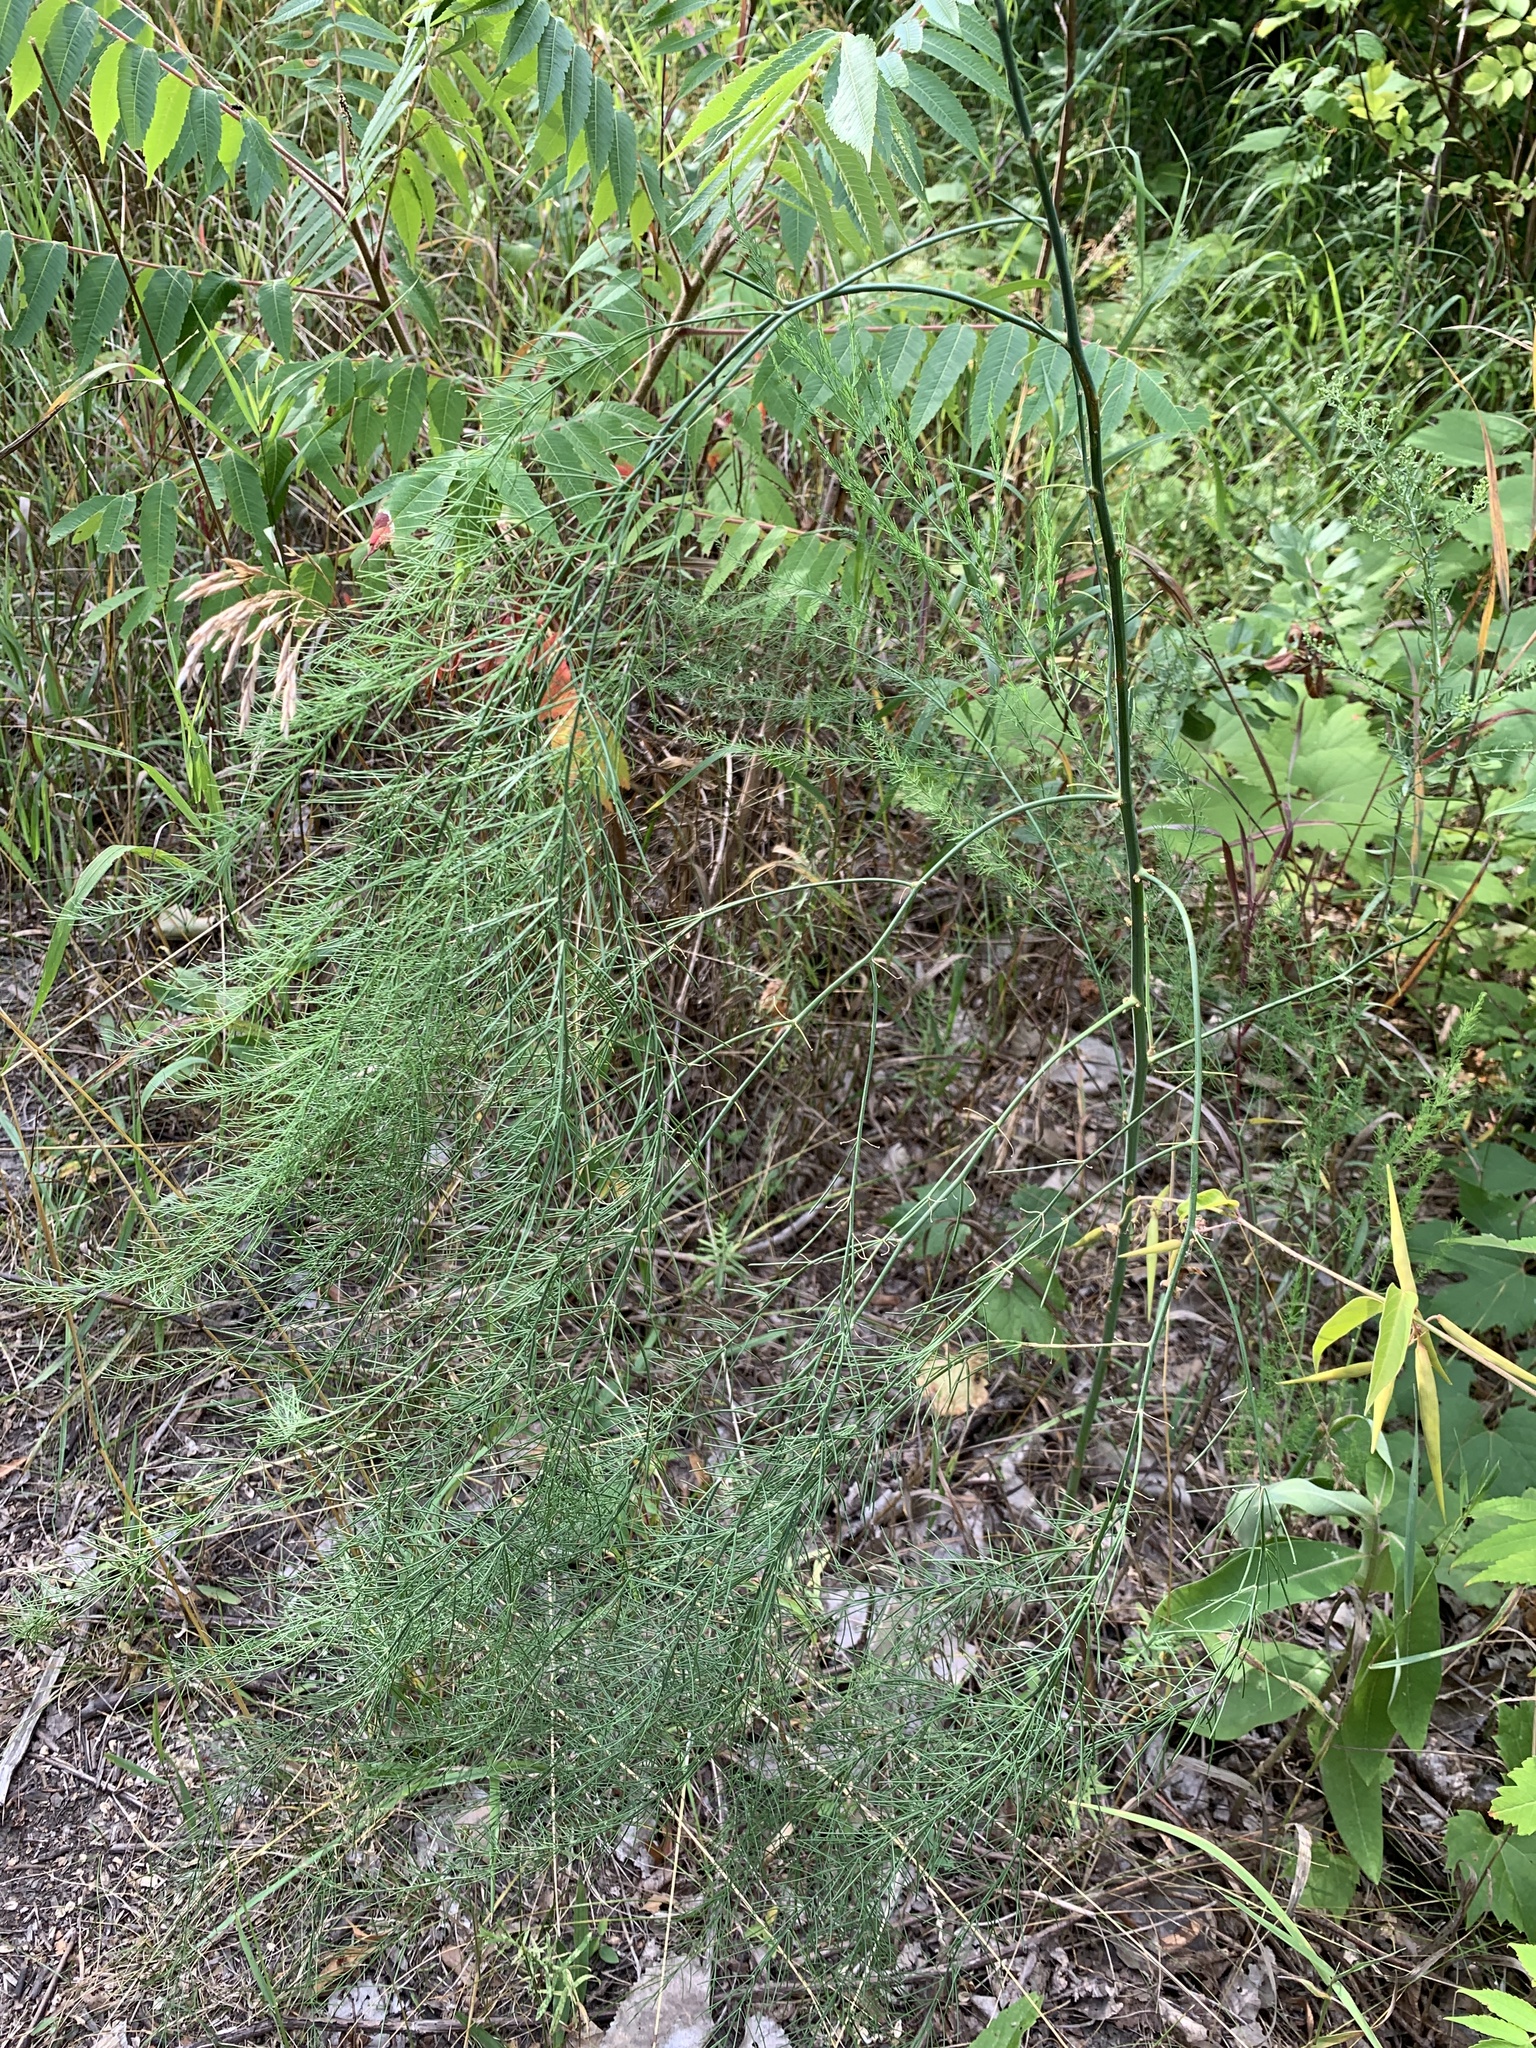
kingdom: Plantae
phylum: Tracheophyta
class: Liliopsida
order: Asparagales
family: Asparagaceae
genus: Asparagus
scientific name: Asparagus officinalis
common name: Garden asparagus
